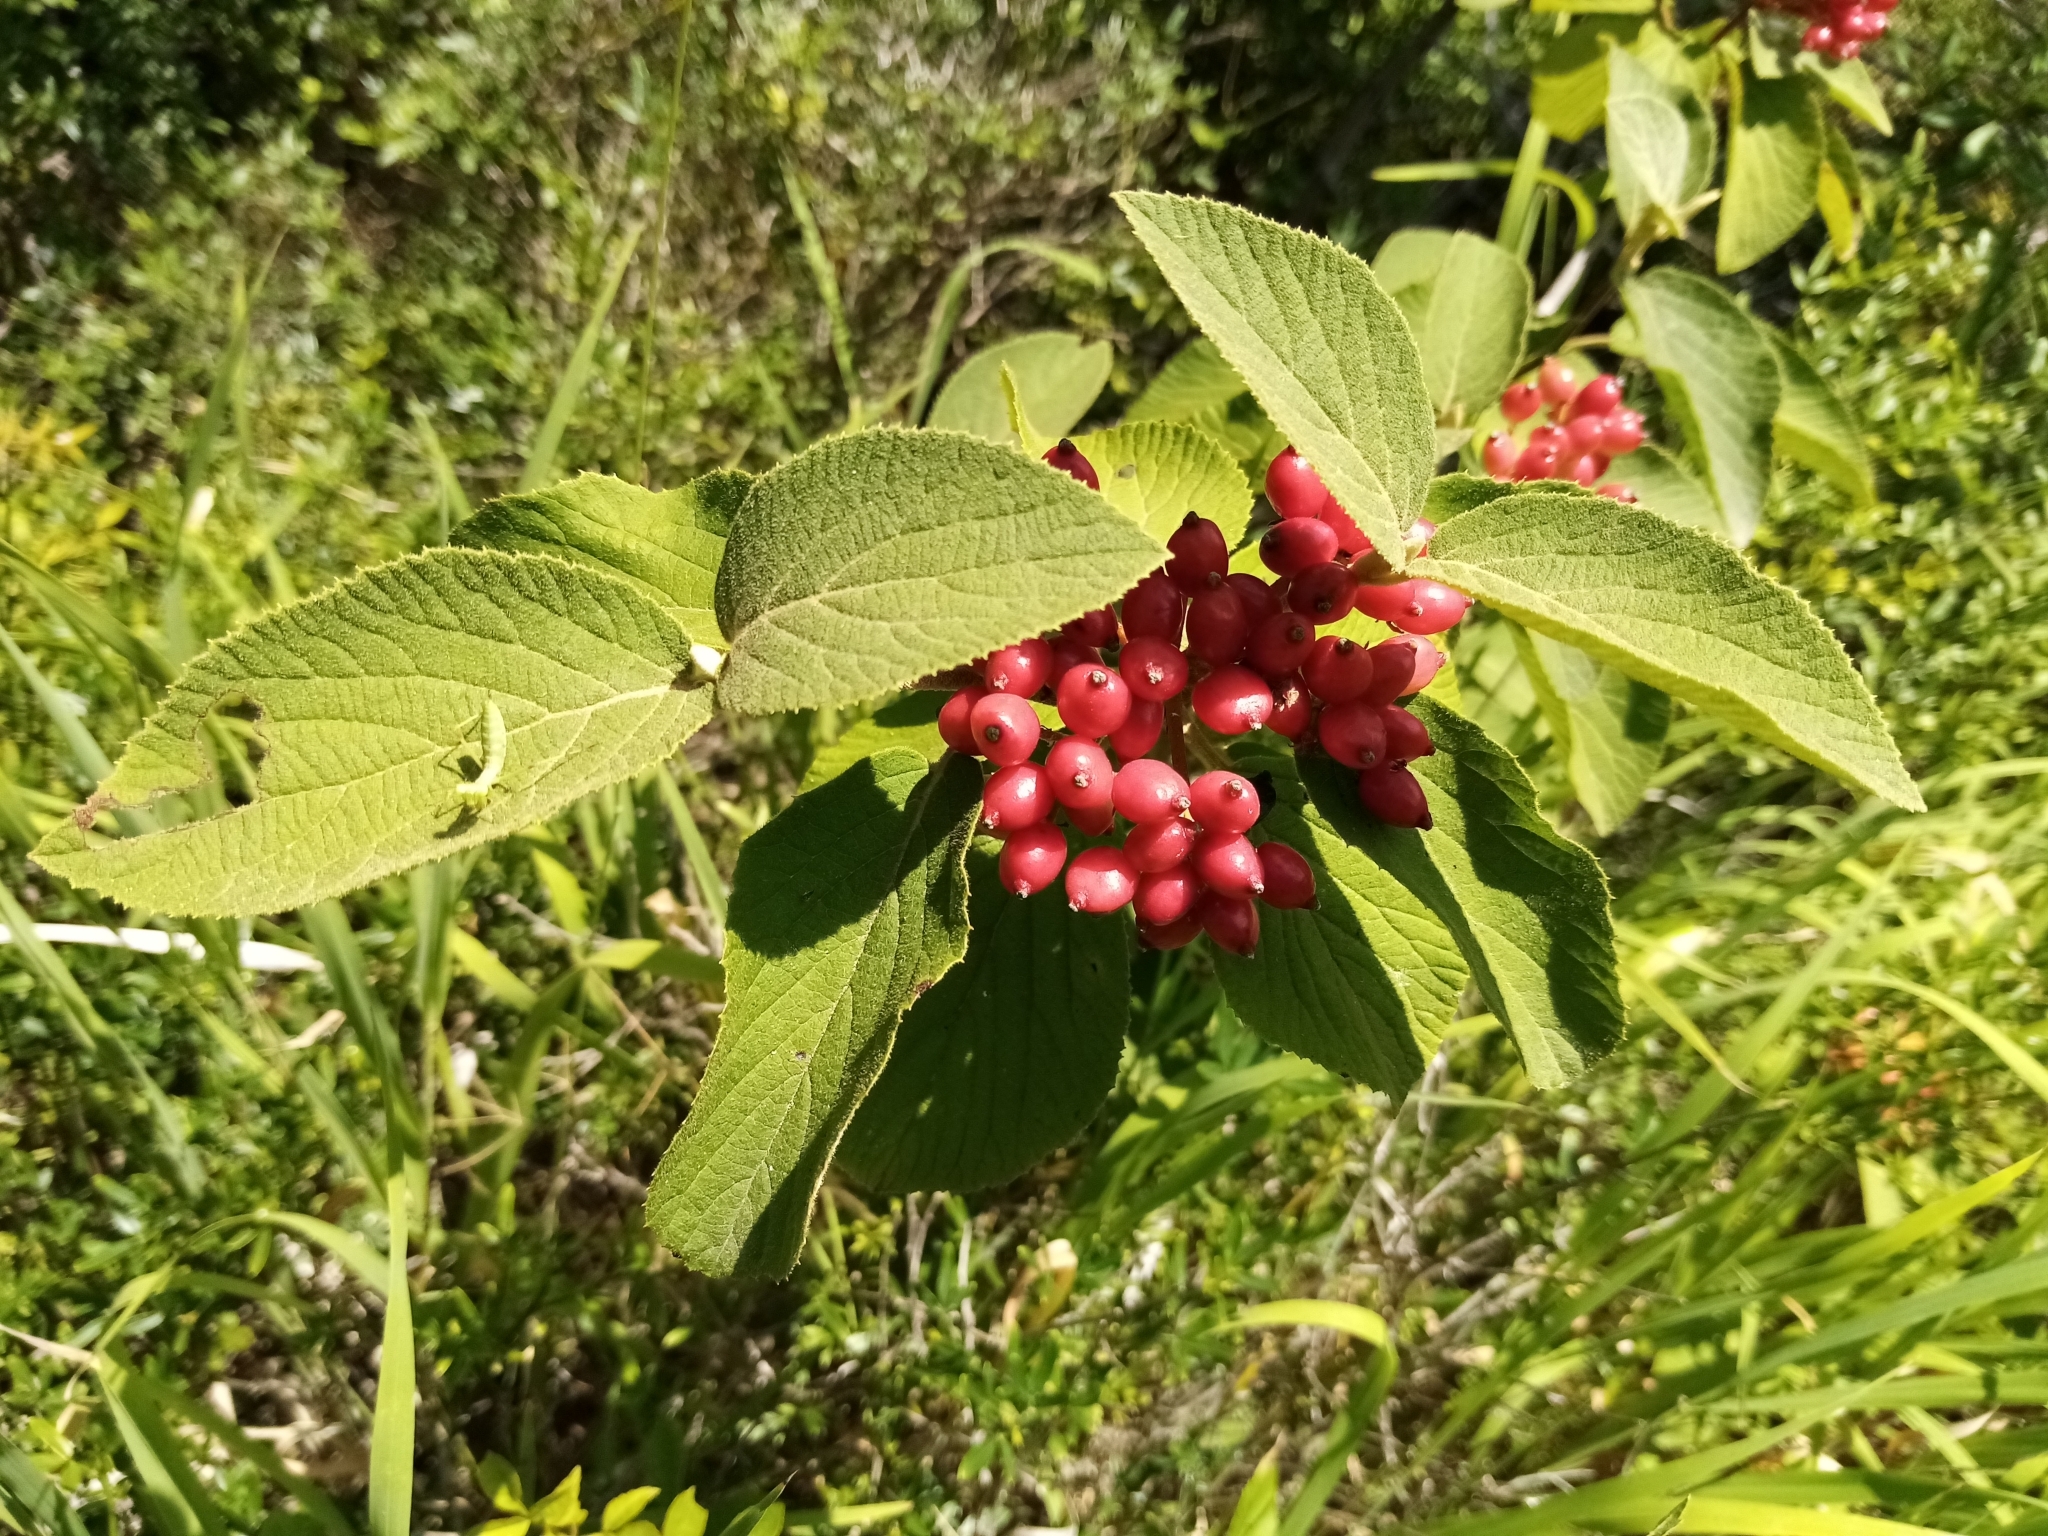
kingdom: Plantae
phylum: Tracheophyta
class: Magnoliopsida
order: Dipsacales
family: Viburnaceae
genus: Viburnum
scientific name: Viburnum lantana
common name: Wayfaring tree
